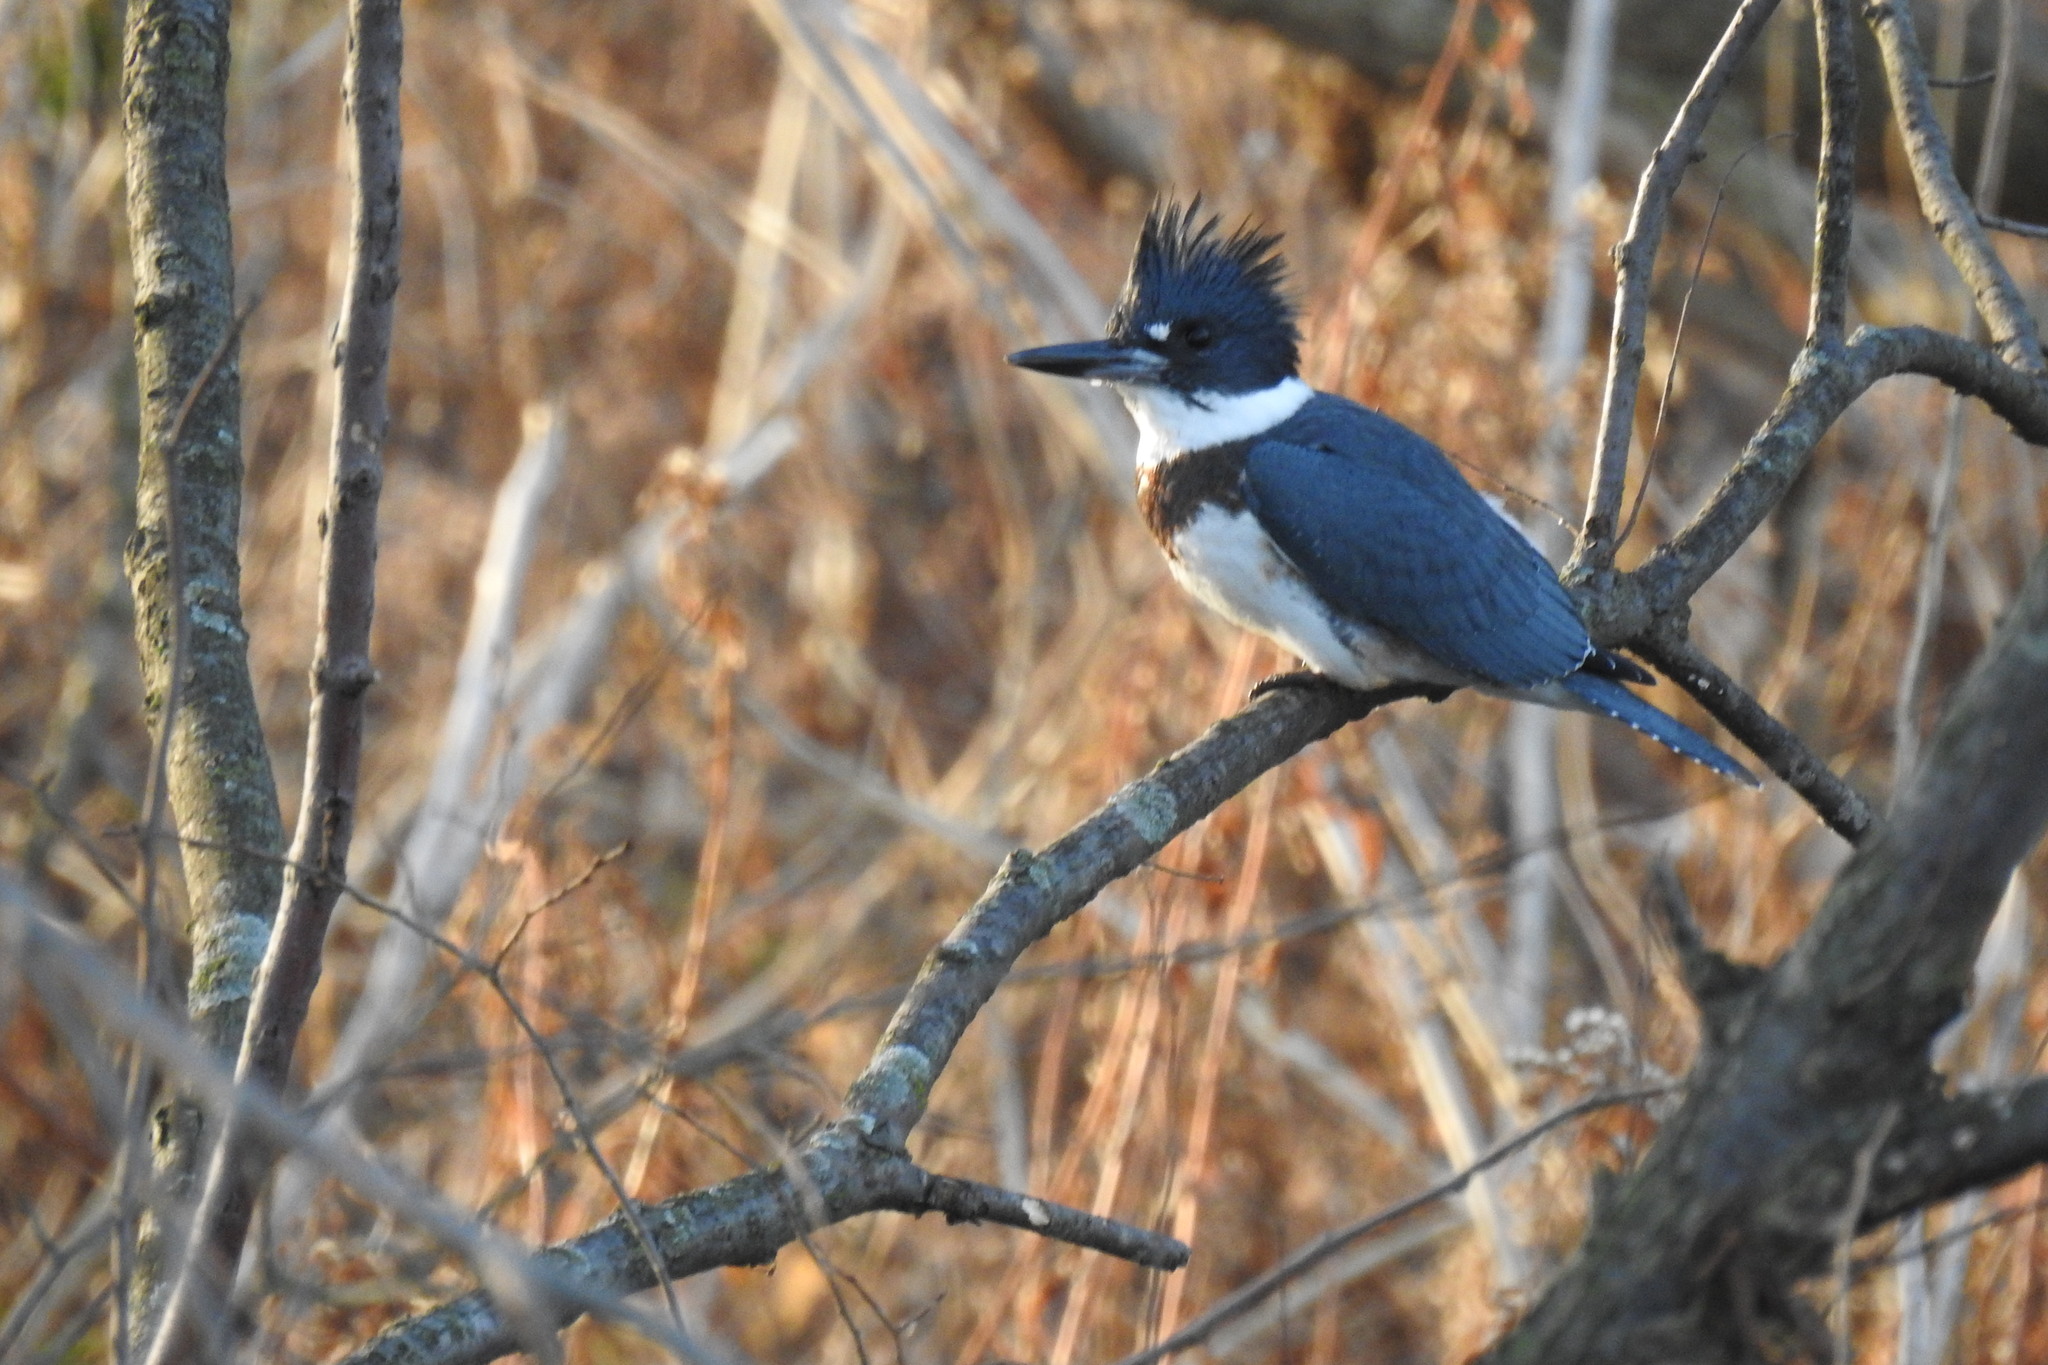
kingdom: Animalia
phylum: Chordata
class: Aves
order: Coraciiformes
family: Alcedinidae
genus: Megaceryle
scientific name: Megaceryle alcyon
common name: Belted kingfisher
